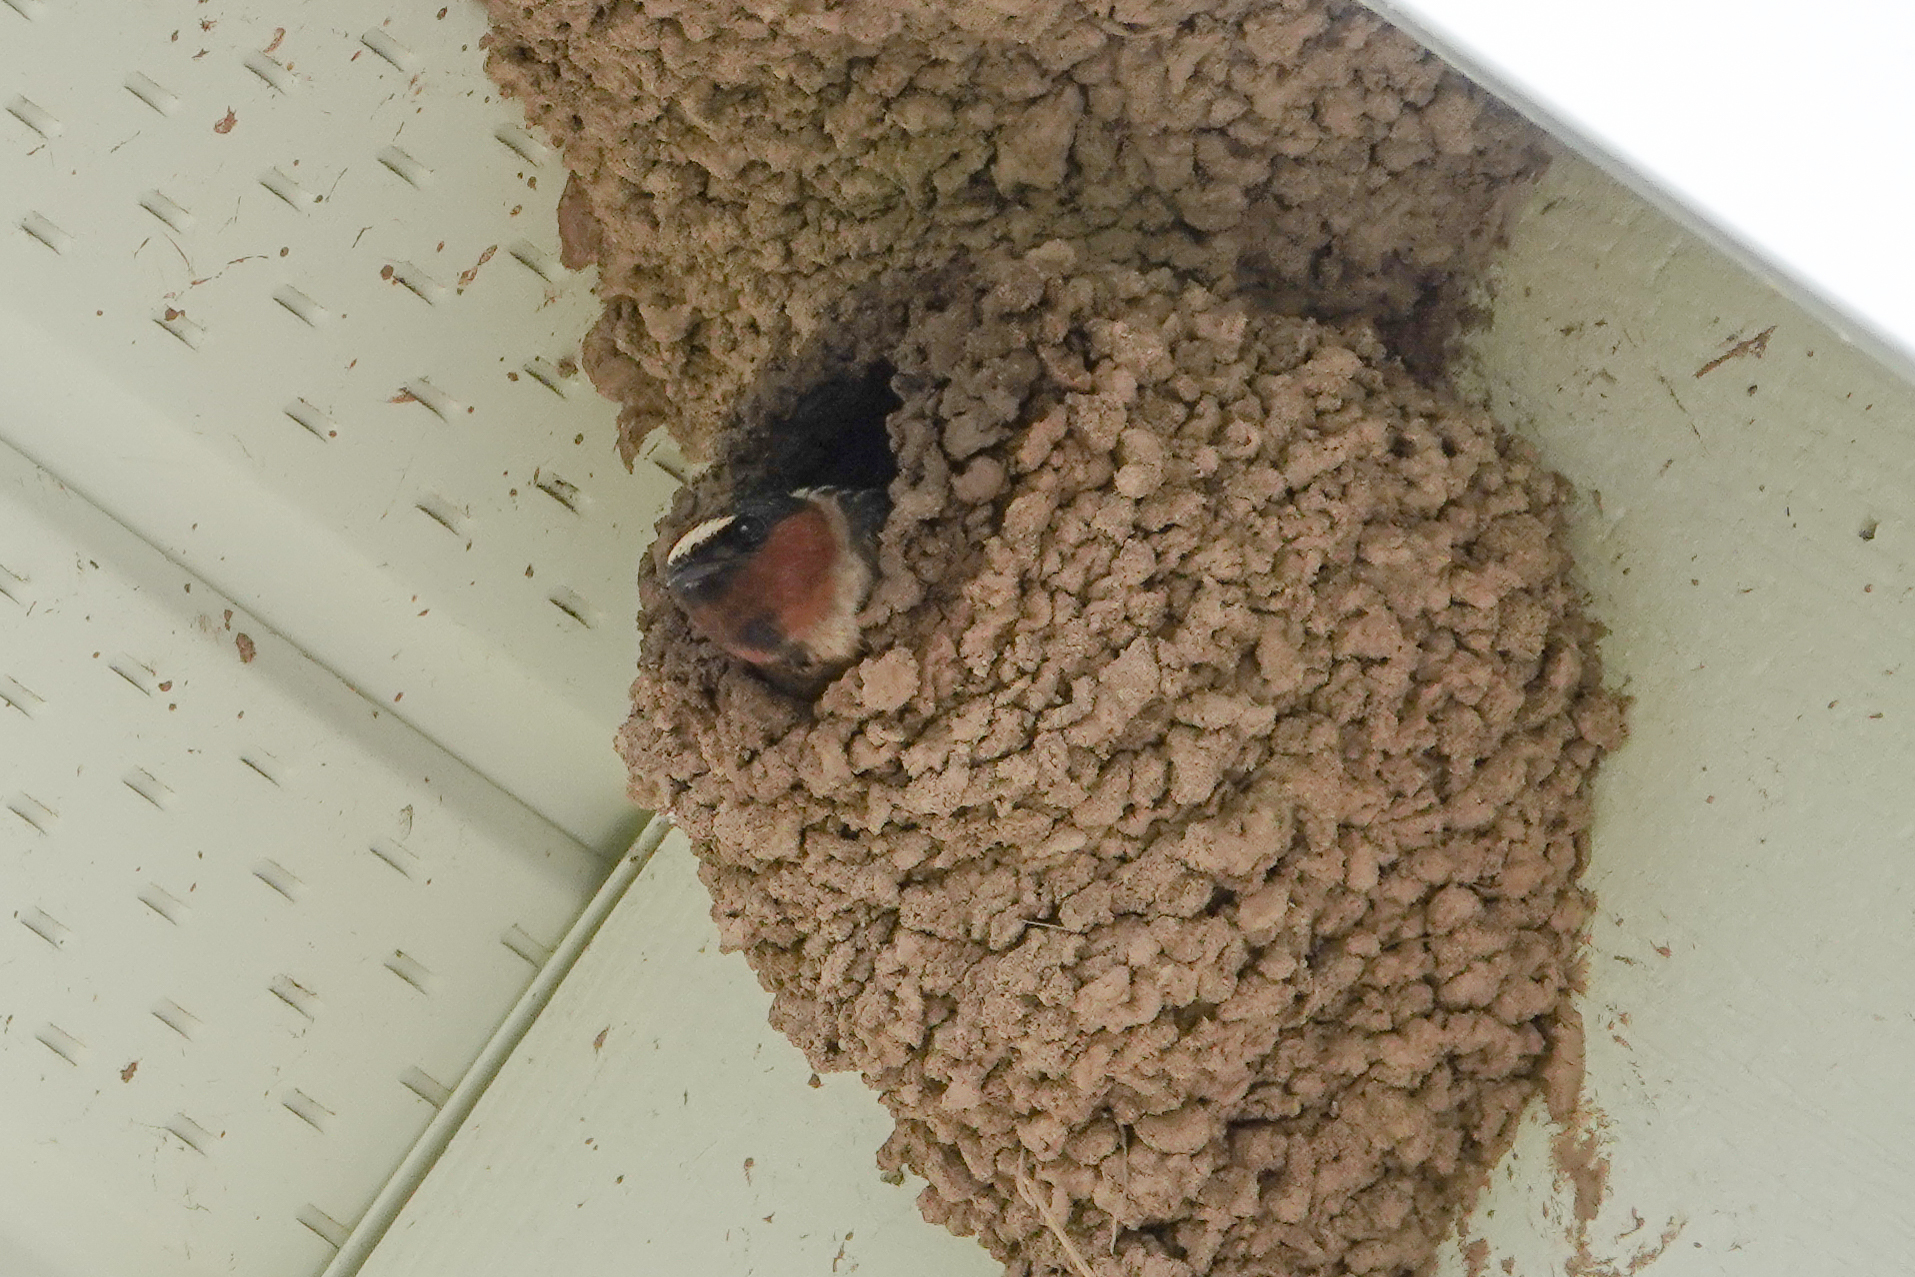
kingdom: Animalia
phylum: Chordata
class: Aves
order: Passeriformes
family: Hirundinidae
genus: Petrochelidon
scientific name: Petrochelidon pyrrhonota
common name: American cliff swallow
